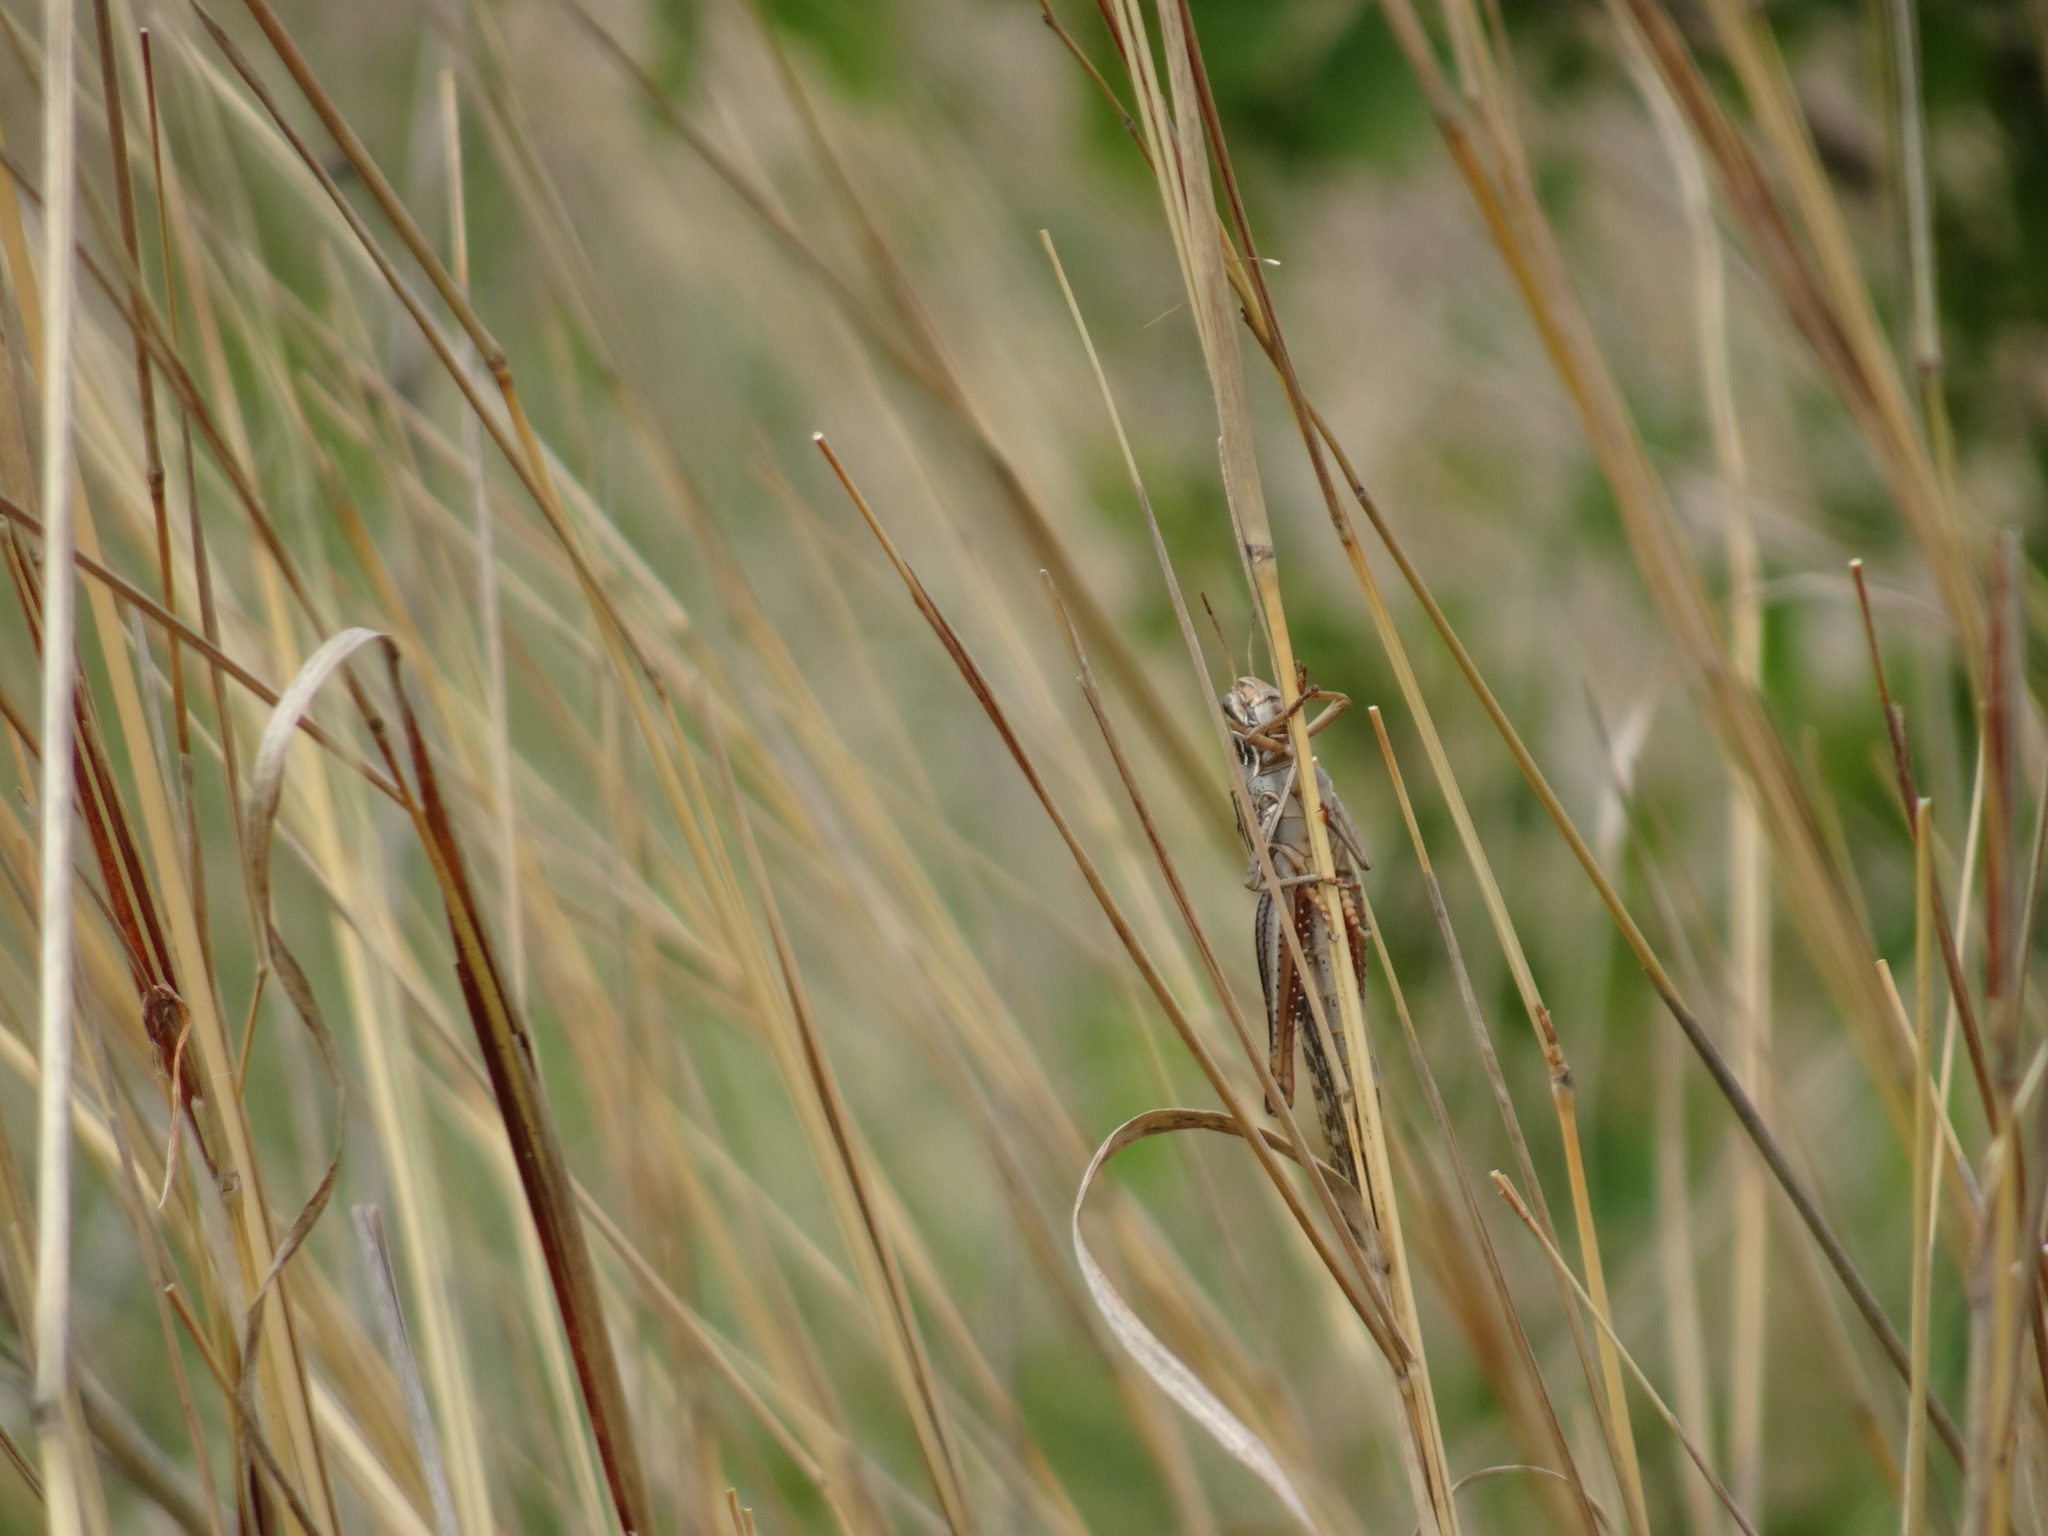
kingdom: Animalia
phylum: Arthropoda
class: Insecta
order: Orthoptera
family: Acrididae
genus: Schistocerca
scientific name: Schistocerca americana
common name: American bird locust
